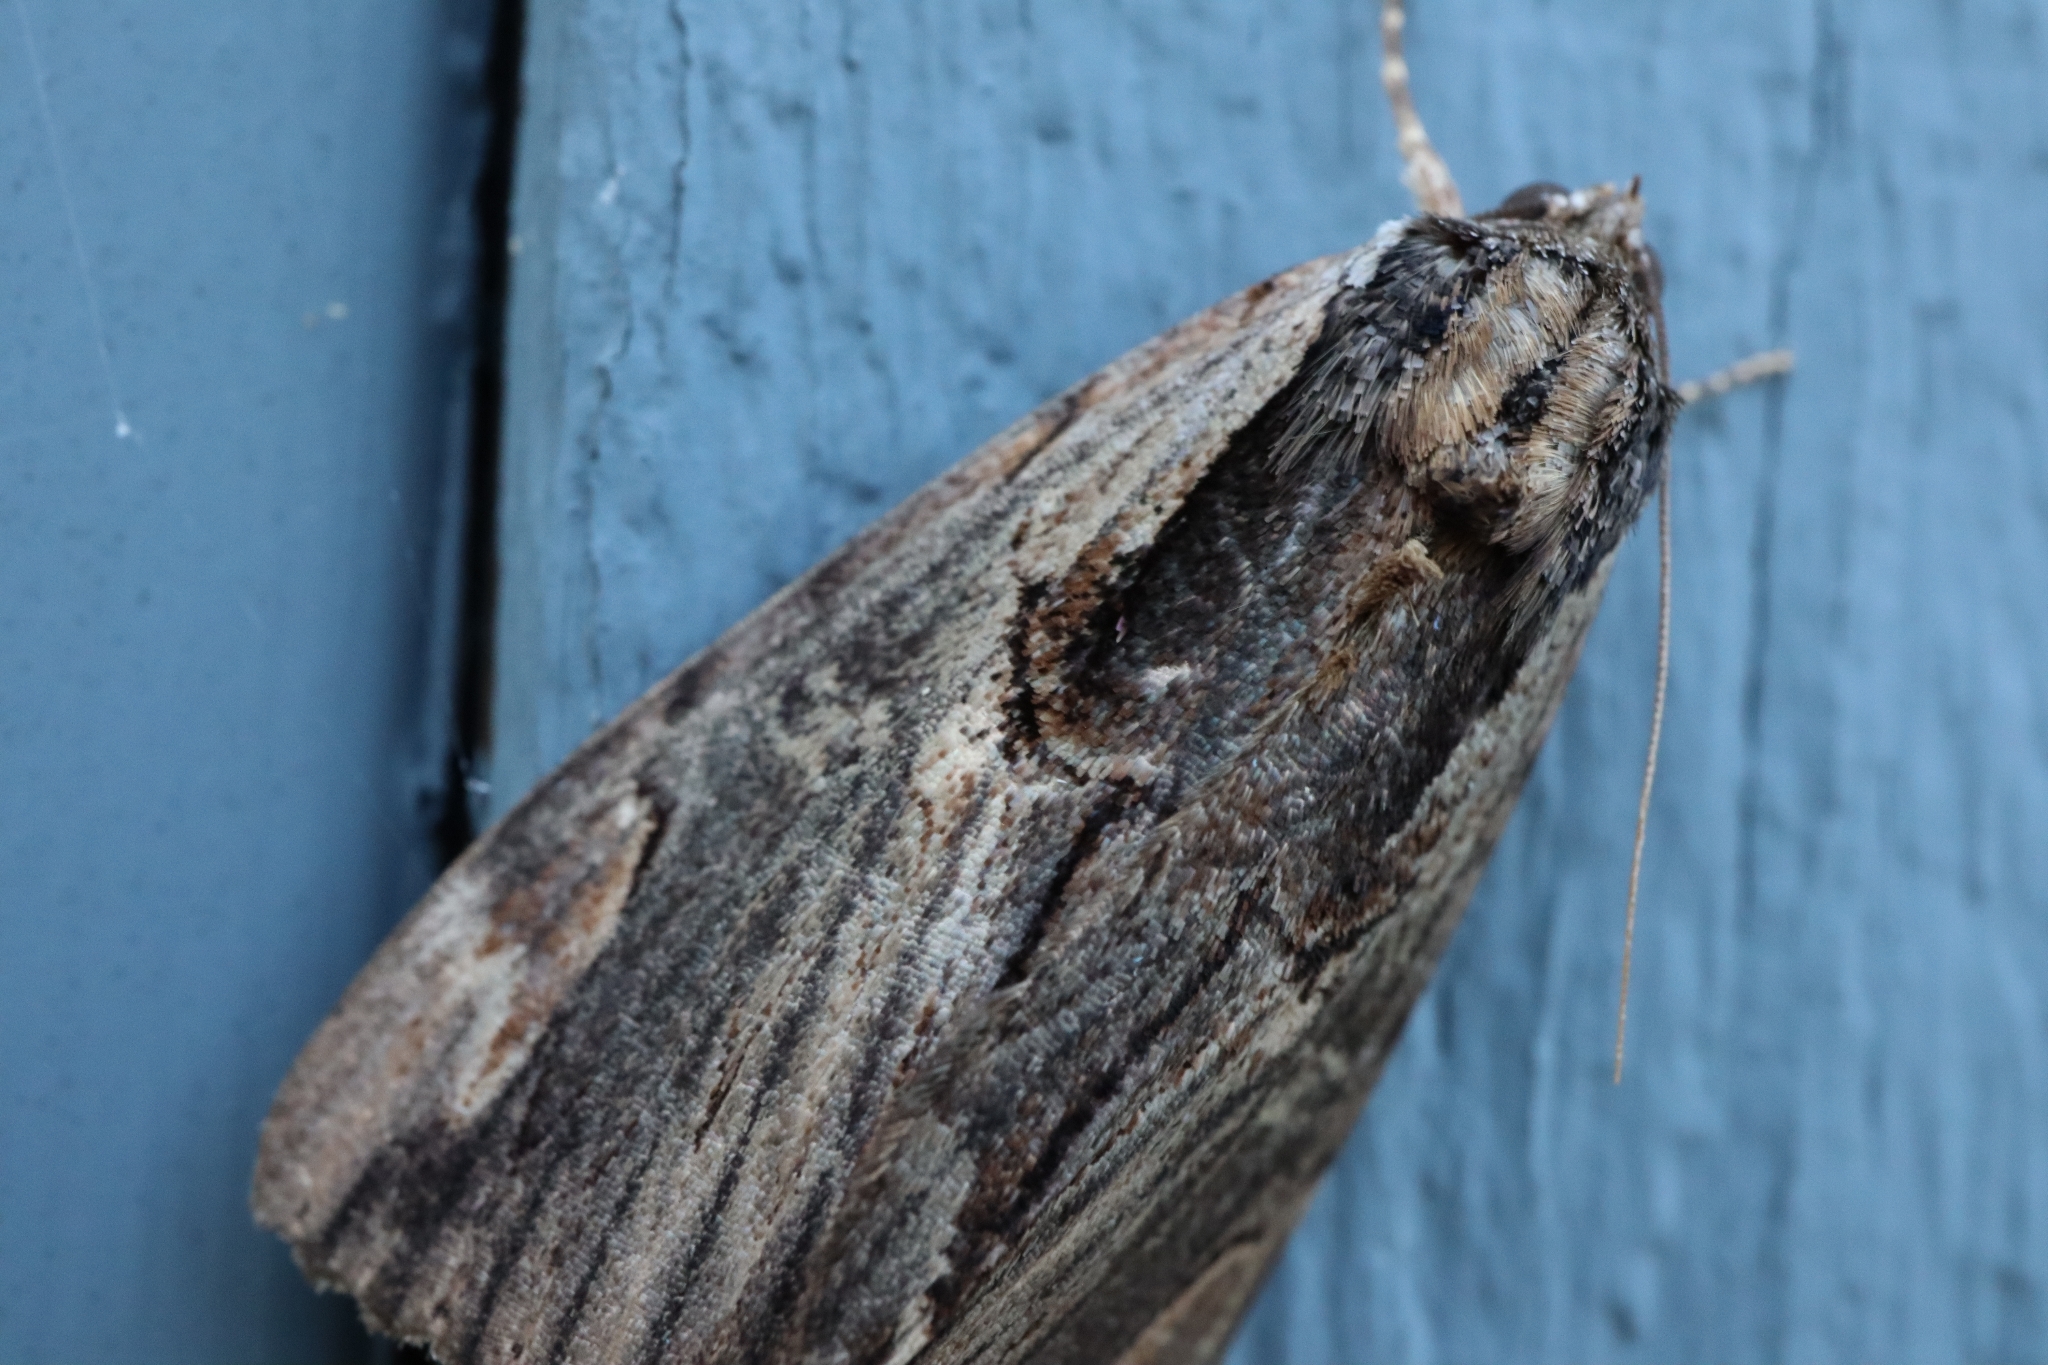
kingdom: Animalia
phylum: Arthropoda
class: Insecta
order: Lepidoptera
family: Erebidae
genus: Catocala
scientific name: Catocala ultronia
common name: Ultronia underwing
